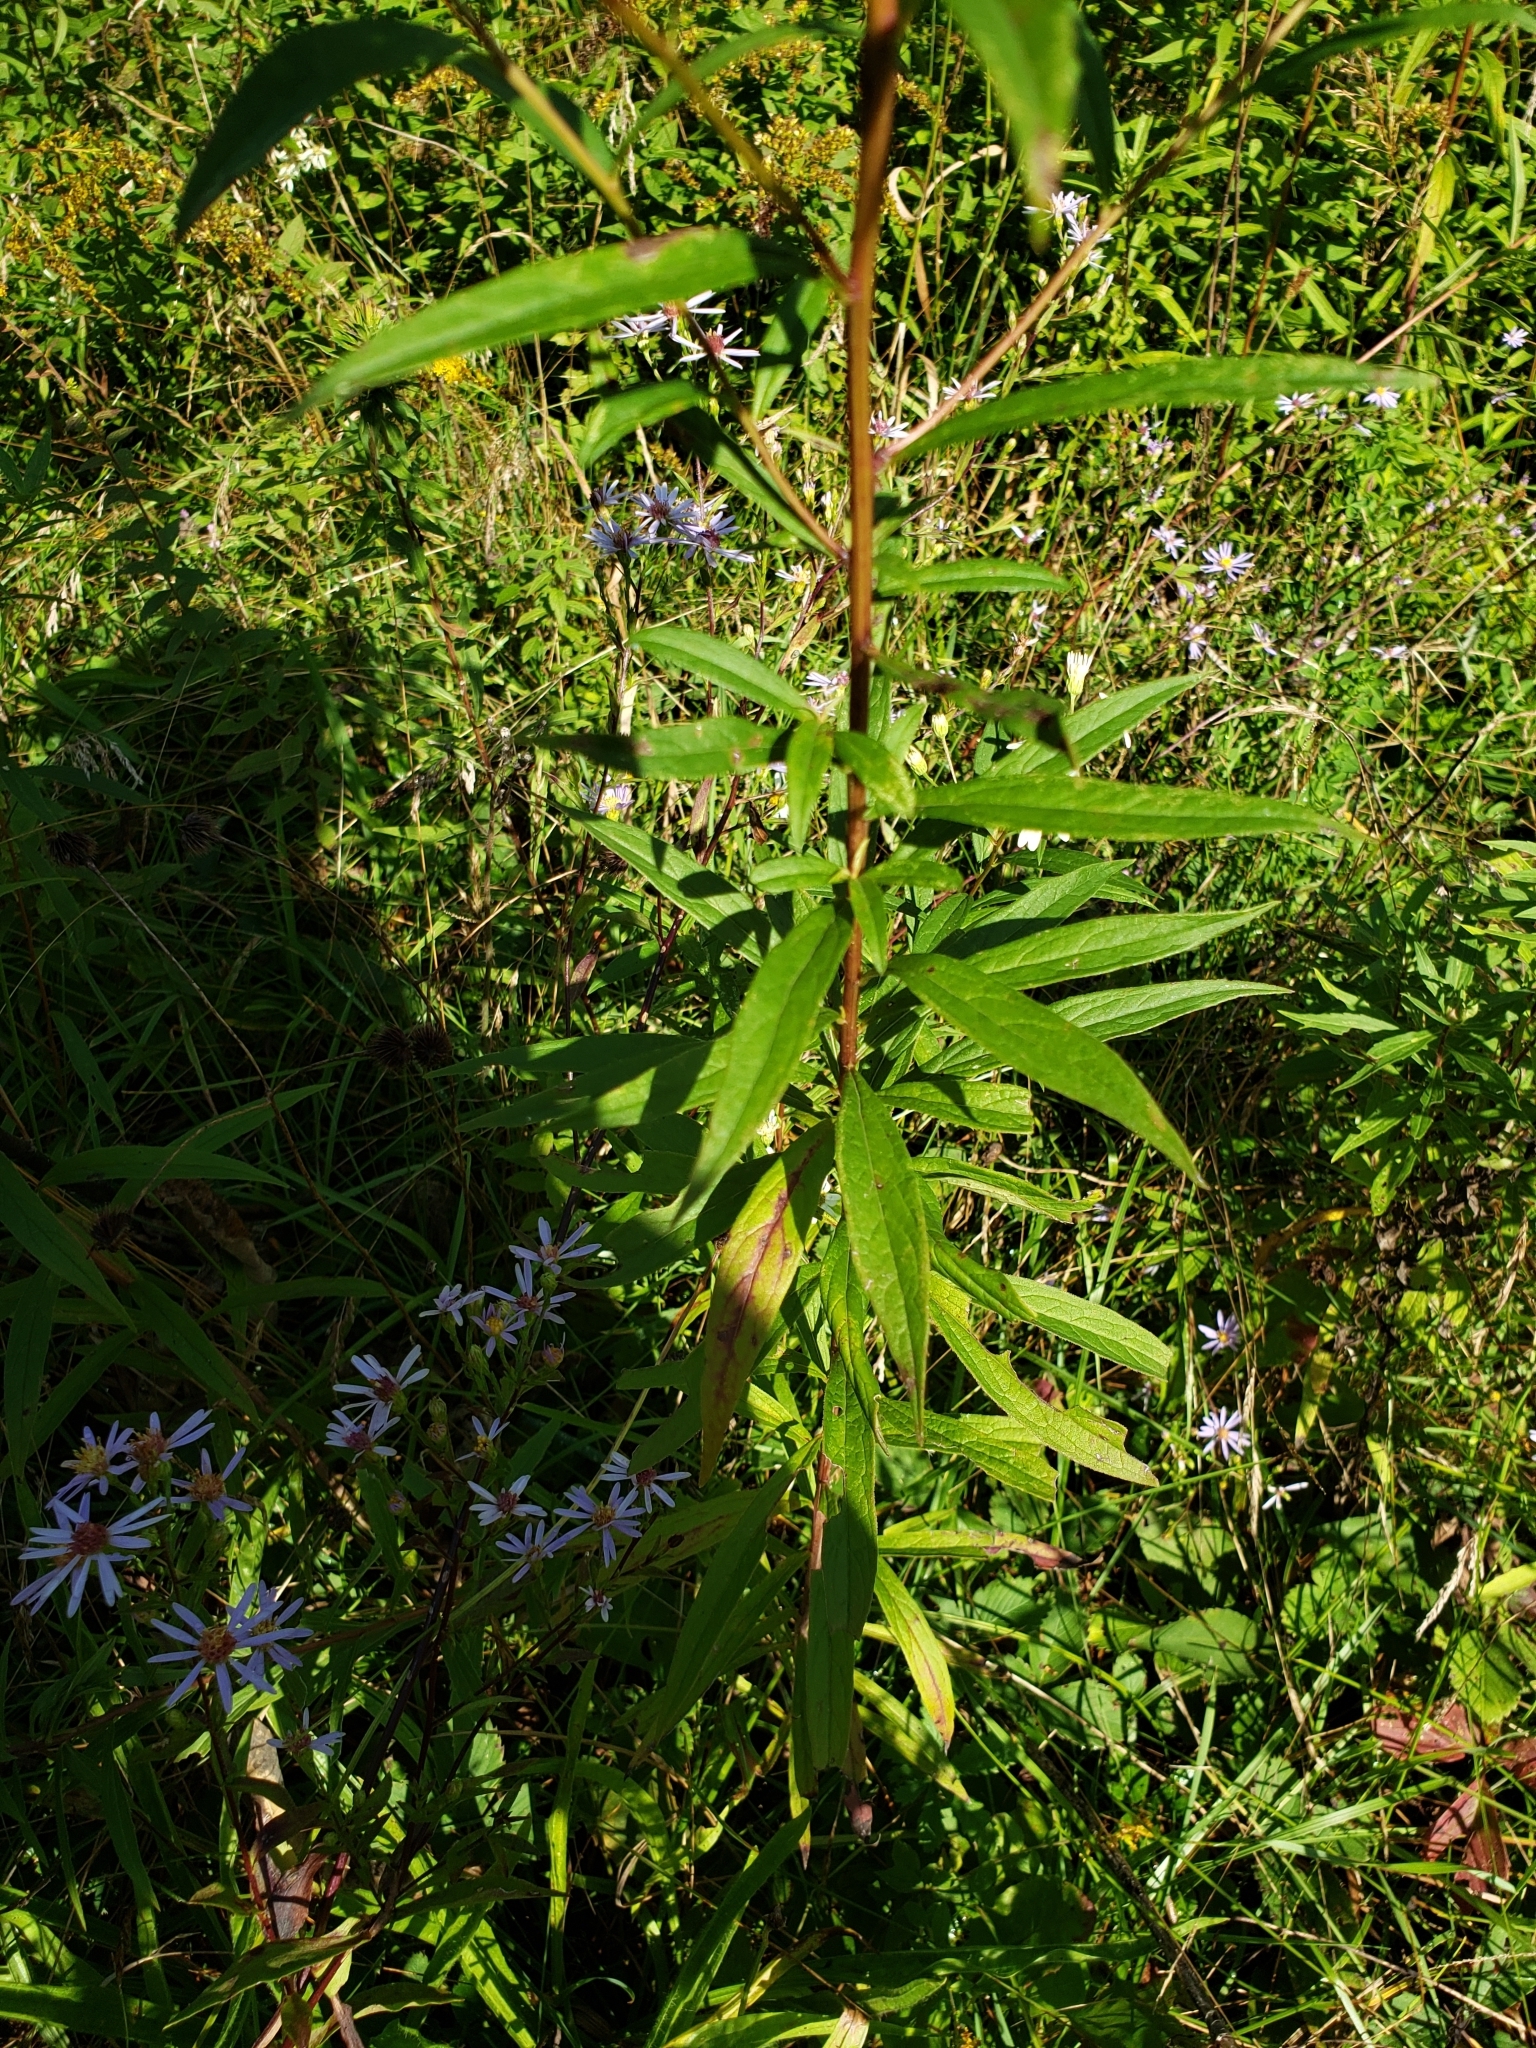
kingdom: Plantae
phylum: Tracheophyta
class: Magnoliopsida
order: Asterales
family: Asteraceae
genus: Doellingeria
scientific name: Doellingeria umbellata
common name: Flat-top white aster
